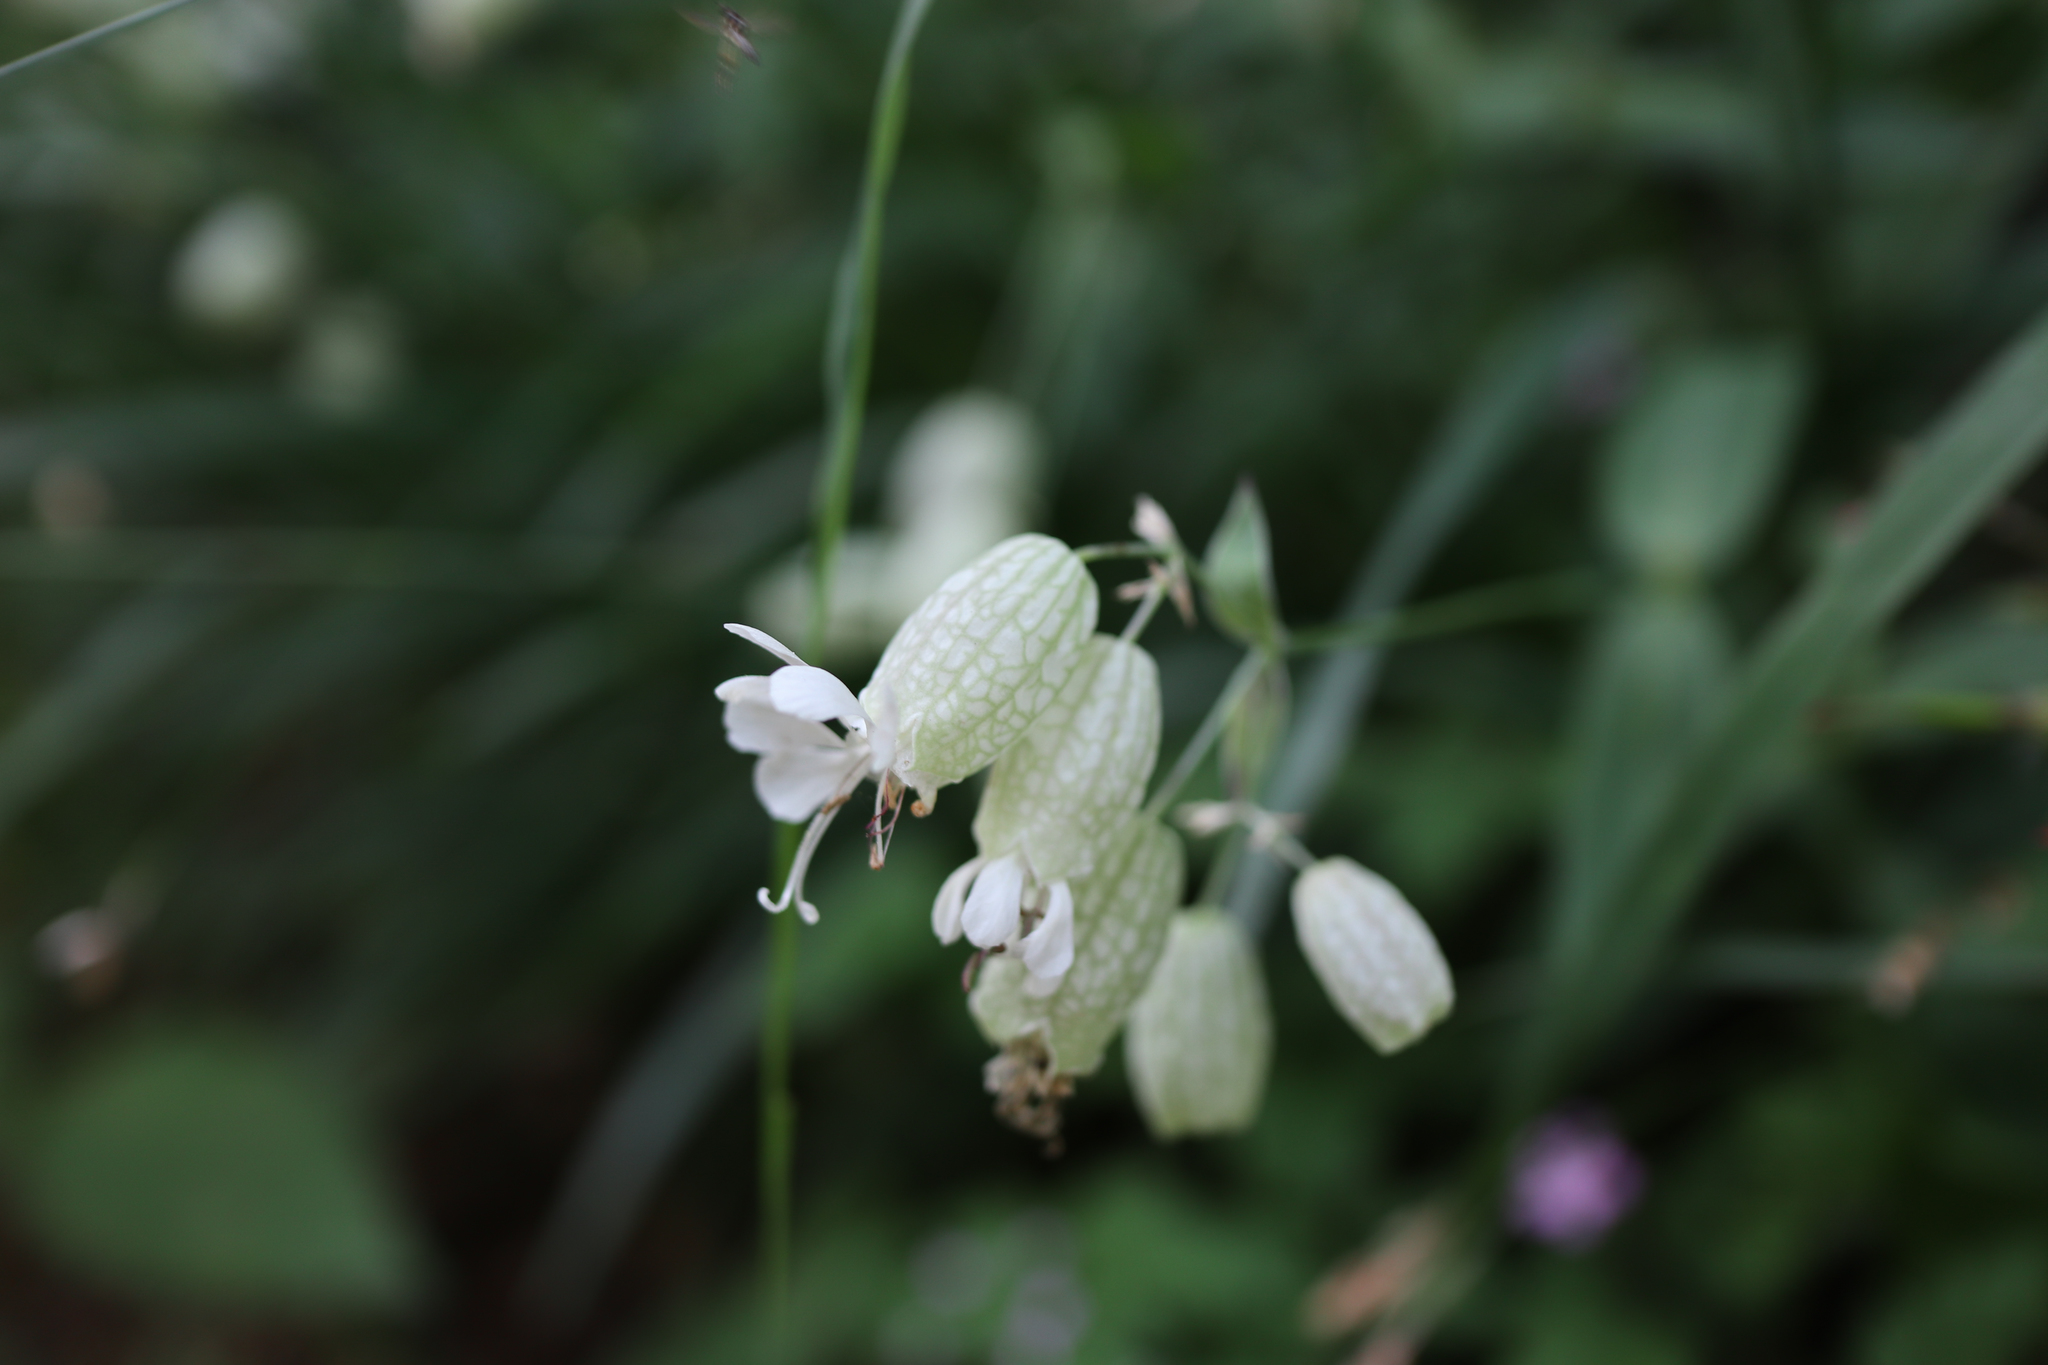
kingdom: Plantae
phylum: Tracheophyta
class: Magnoliopsida
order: Caryophyllales
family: Caryophyllaceae
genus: Silene
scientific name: Silene vulgaris
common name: Bladder campion
